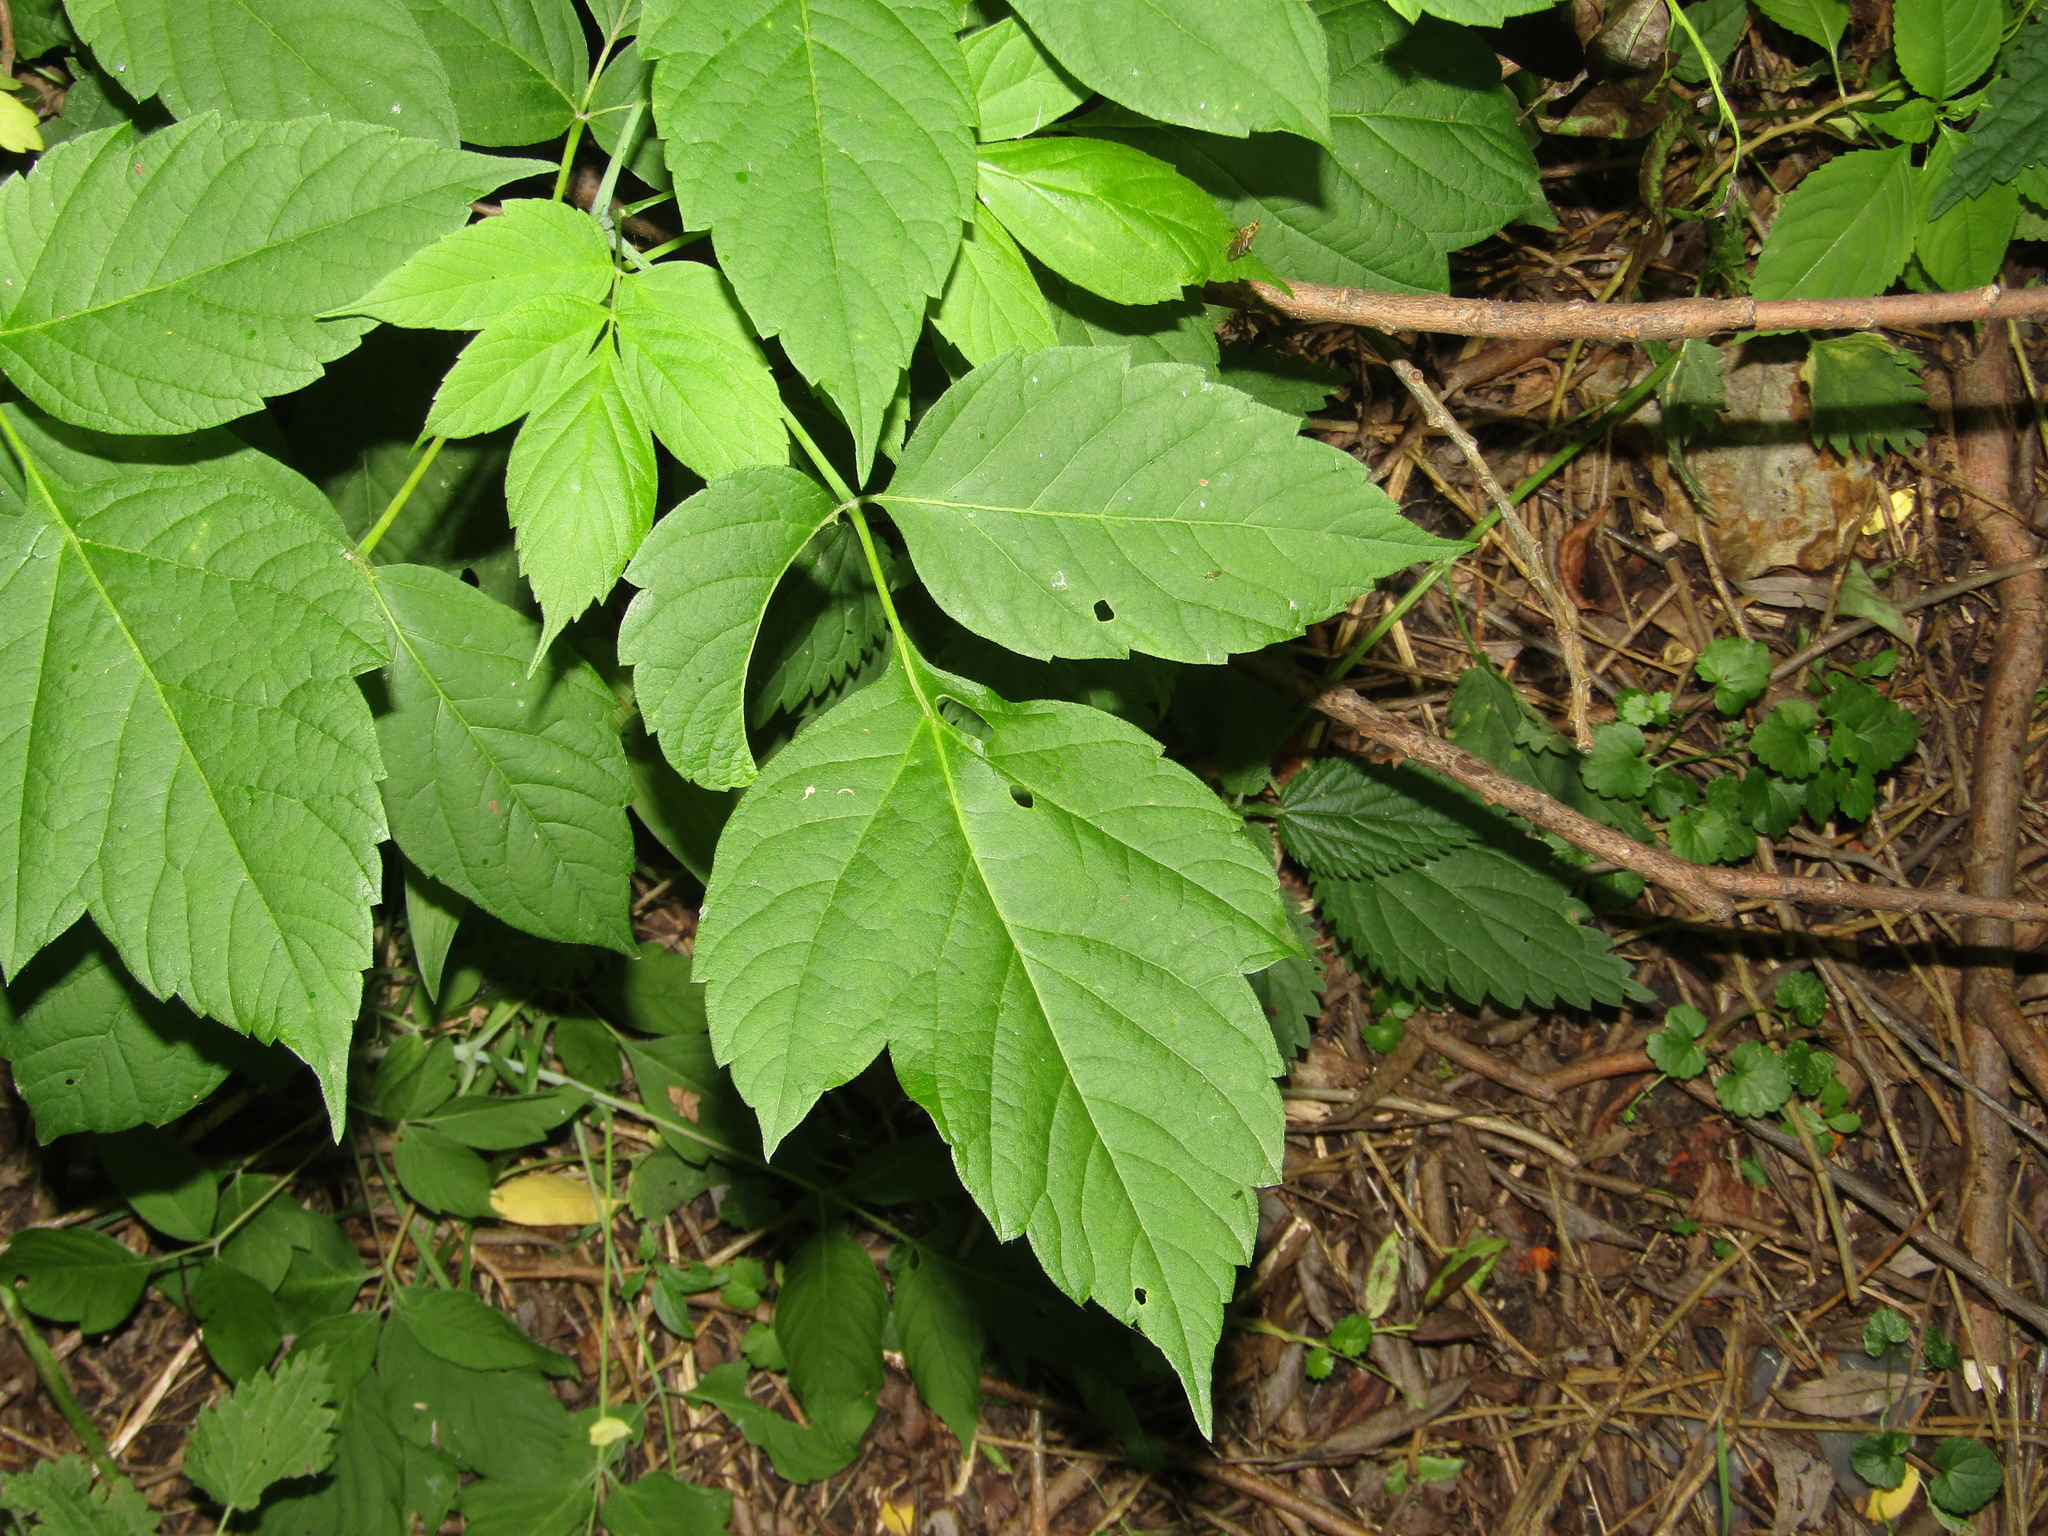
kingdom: Plantae
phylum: Tracheophyta
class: Magnoliopsida
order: Sapindales
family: Sapindaceae
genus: Acer
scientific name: Acer negundo
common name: Ashleaf maple
